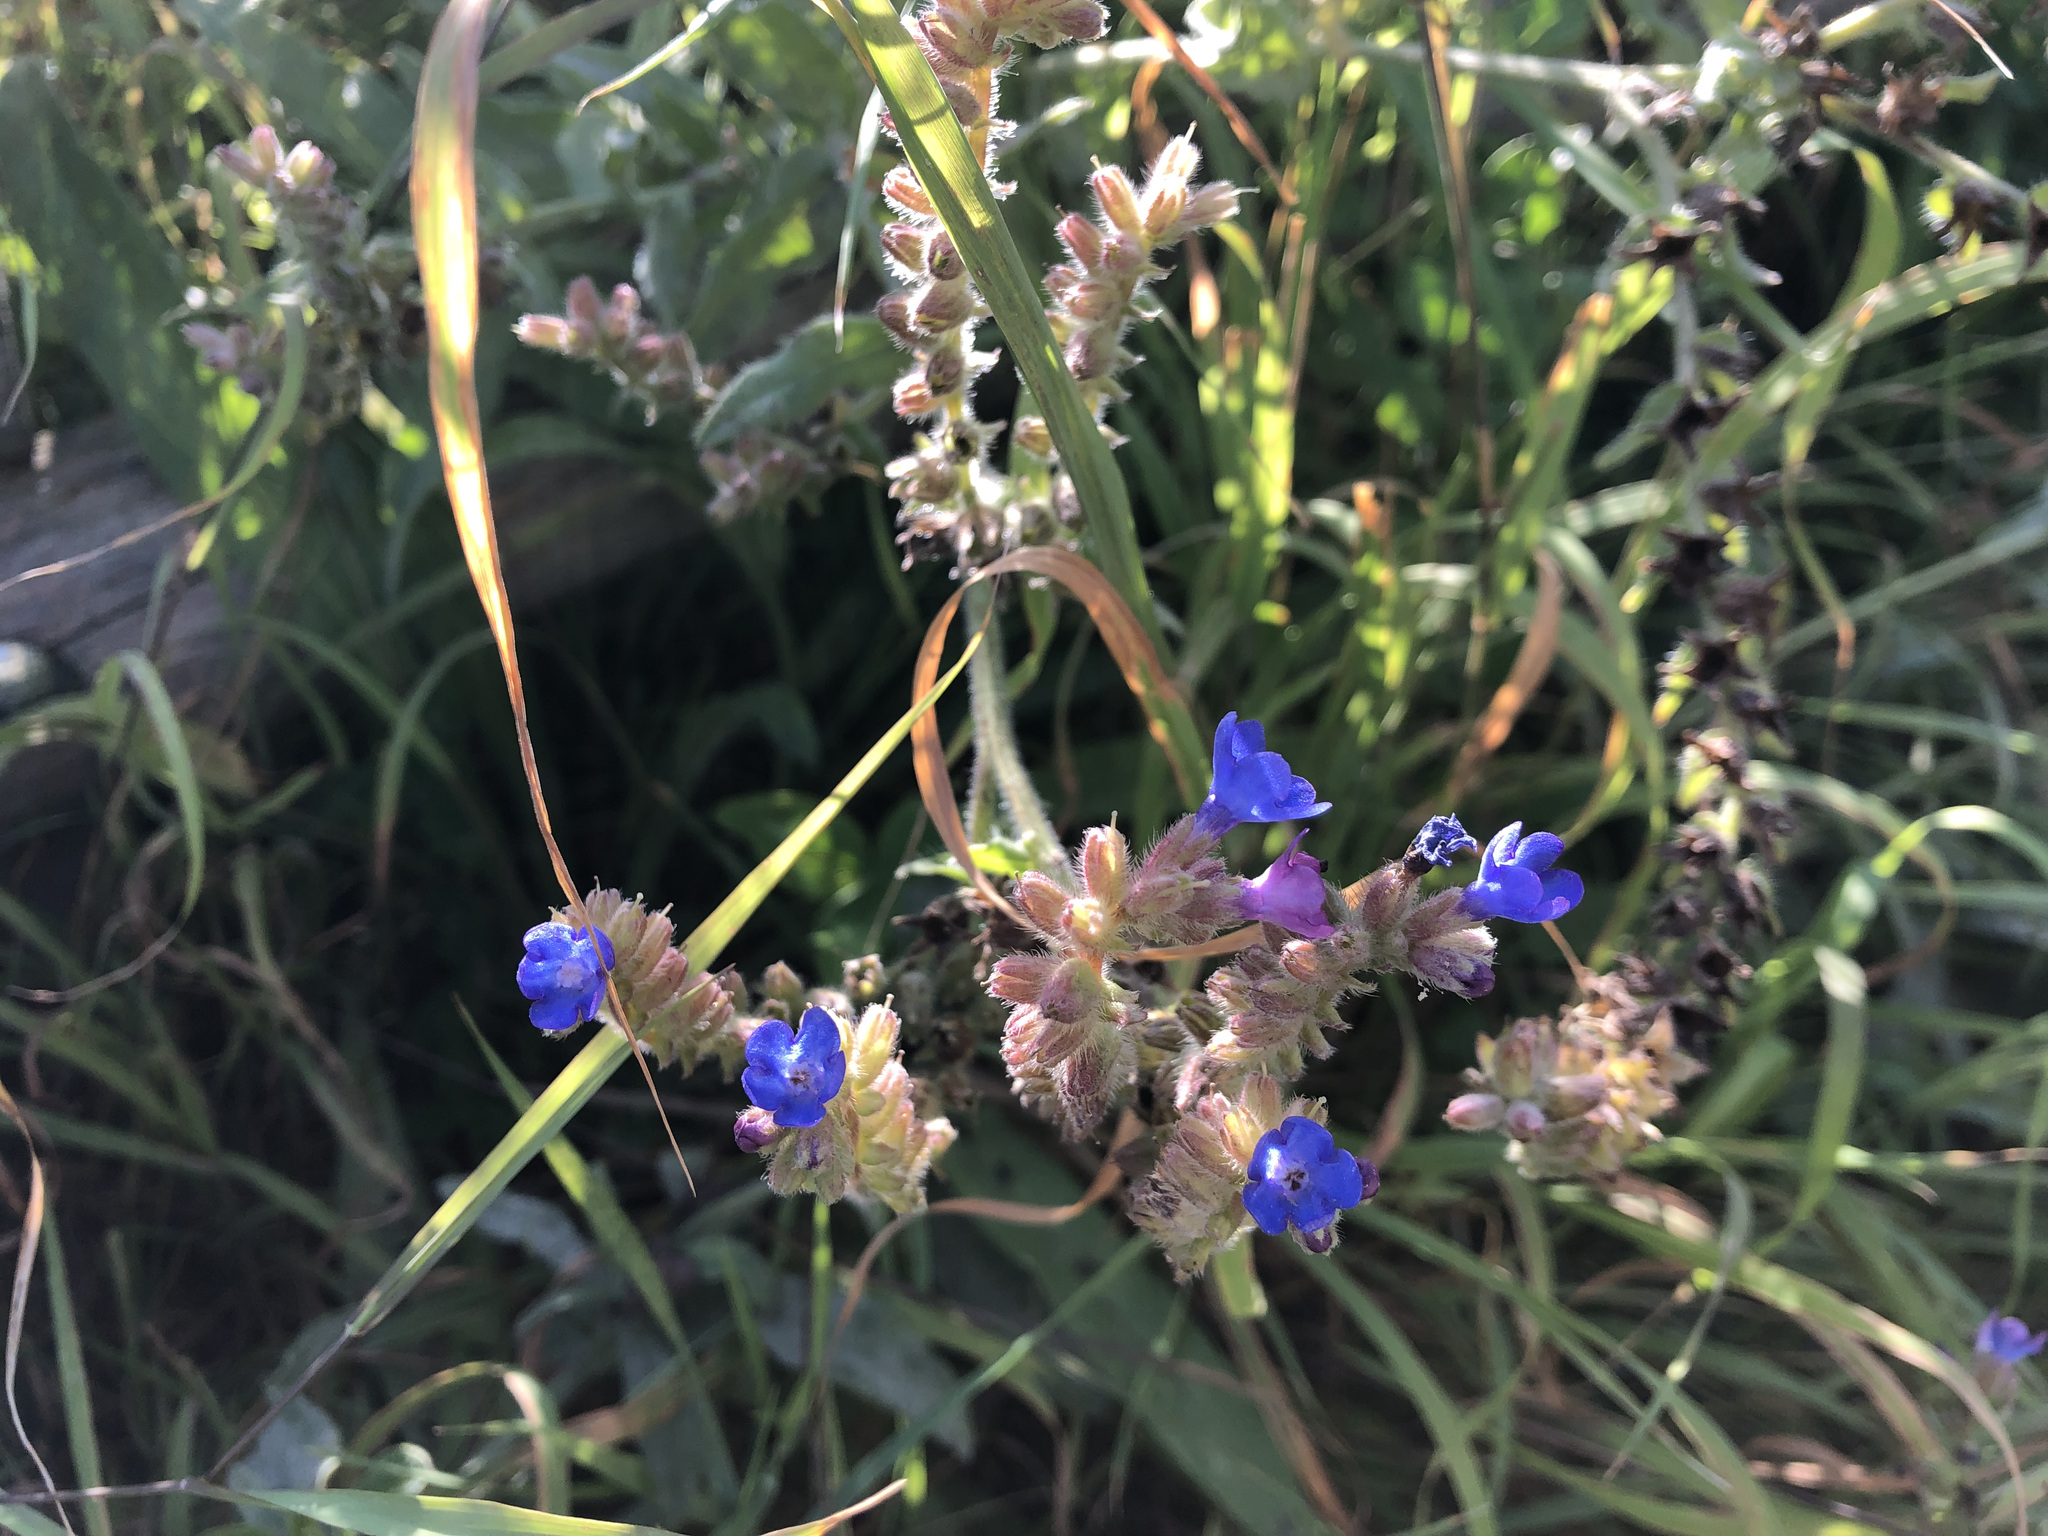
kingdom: Plantae
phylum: Tracheophyta
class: Magnoliopsida
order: Boraginales
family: Boraginaceae
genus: Anchusa
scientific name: Anchusa officinalis
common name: Alkanet
